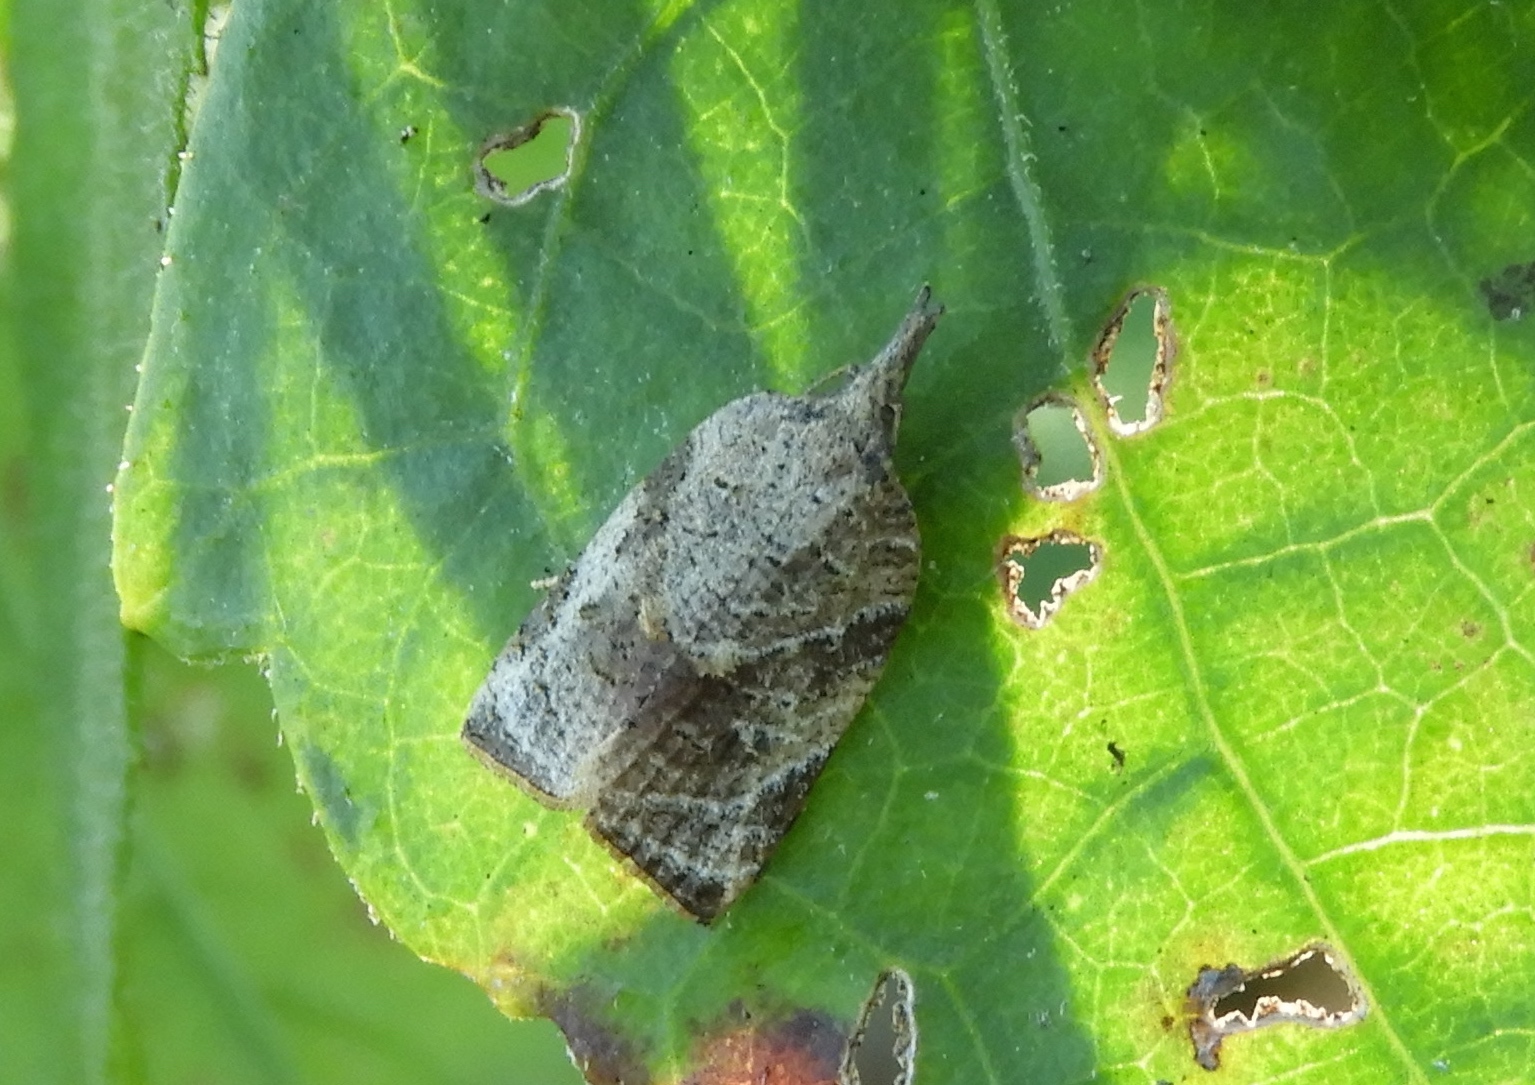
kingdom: Animalia
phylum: Arthropoda
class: Insecta
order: Lepidoptera
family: Tortricidae
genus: Platynota
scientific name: Platynota
